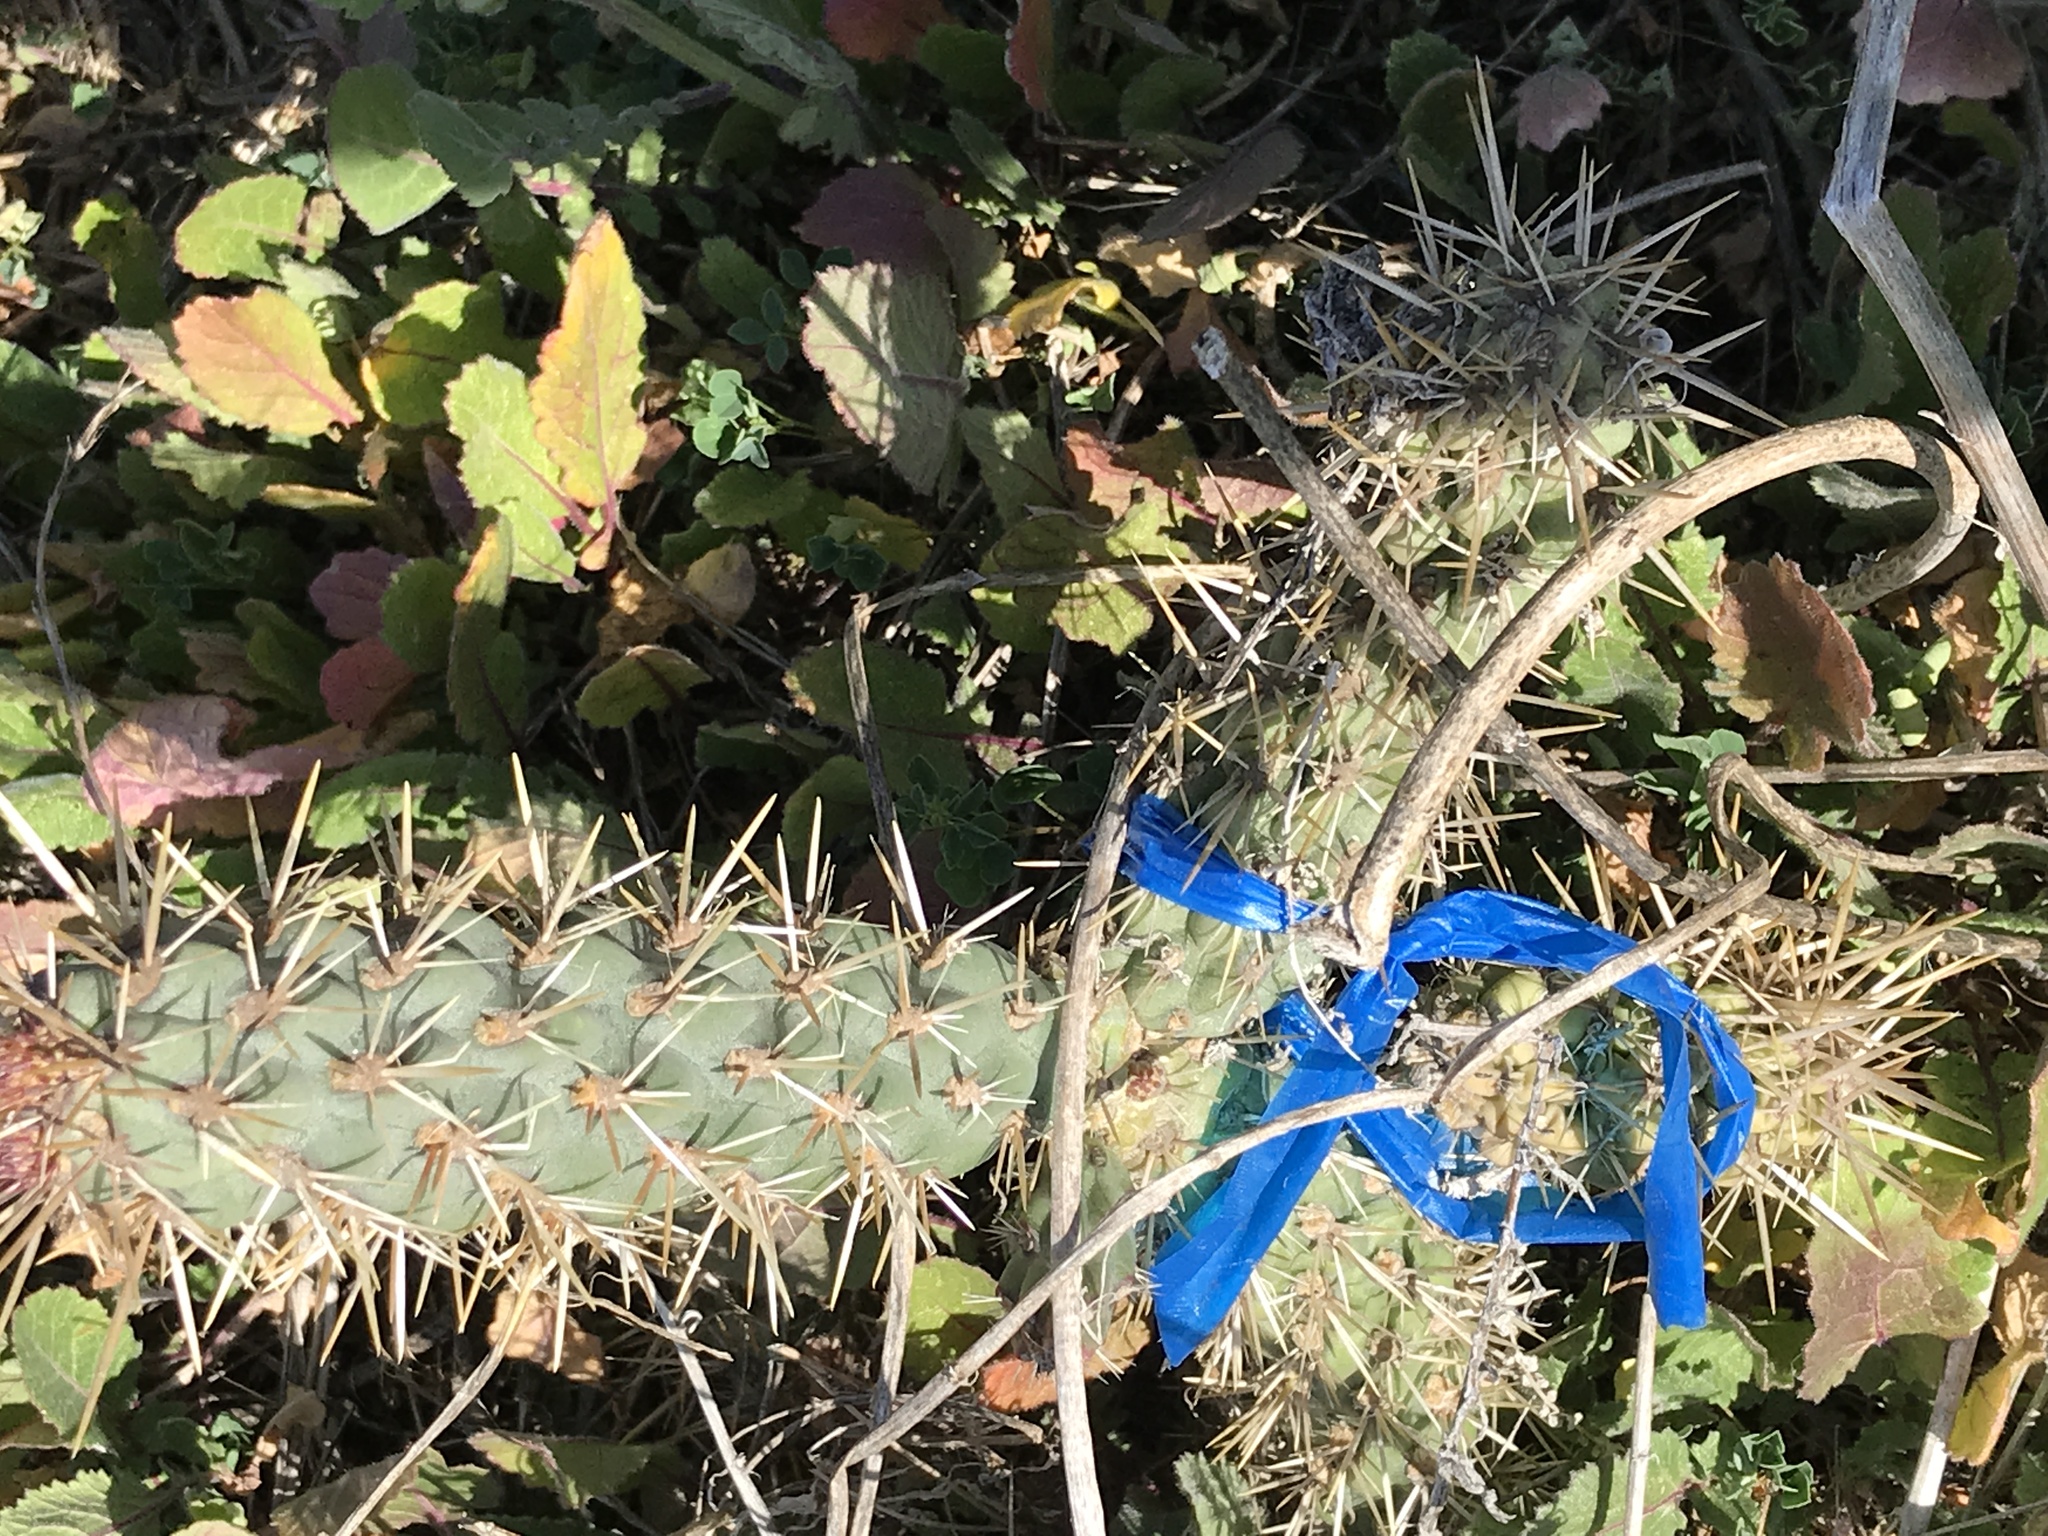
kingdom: Plantae
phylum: Tracheophyta
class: Magnoliopsida
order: Caryophyllales
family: Cactaceae
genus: Cylindropuntia
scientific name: Cylindropuntia prolifera
